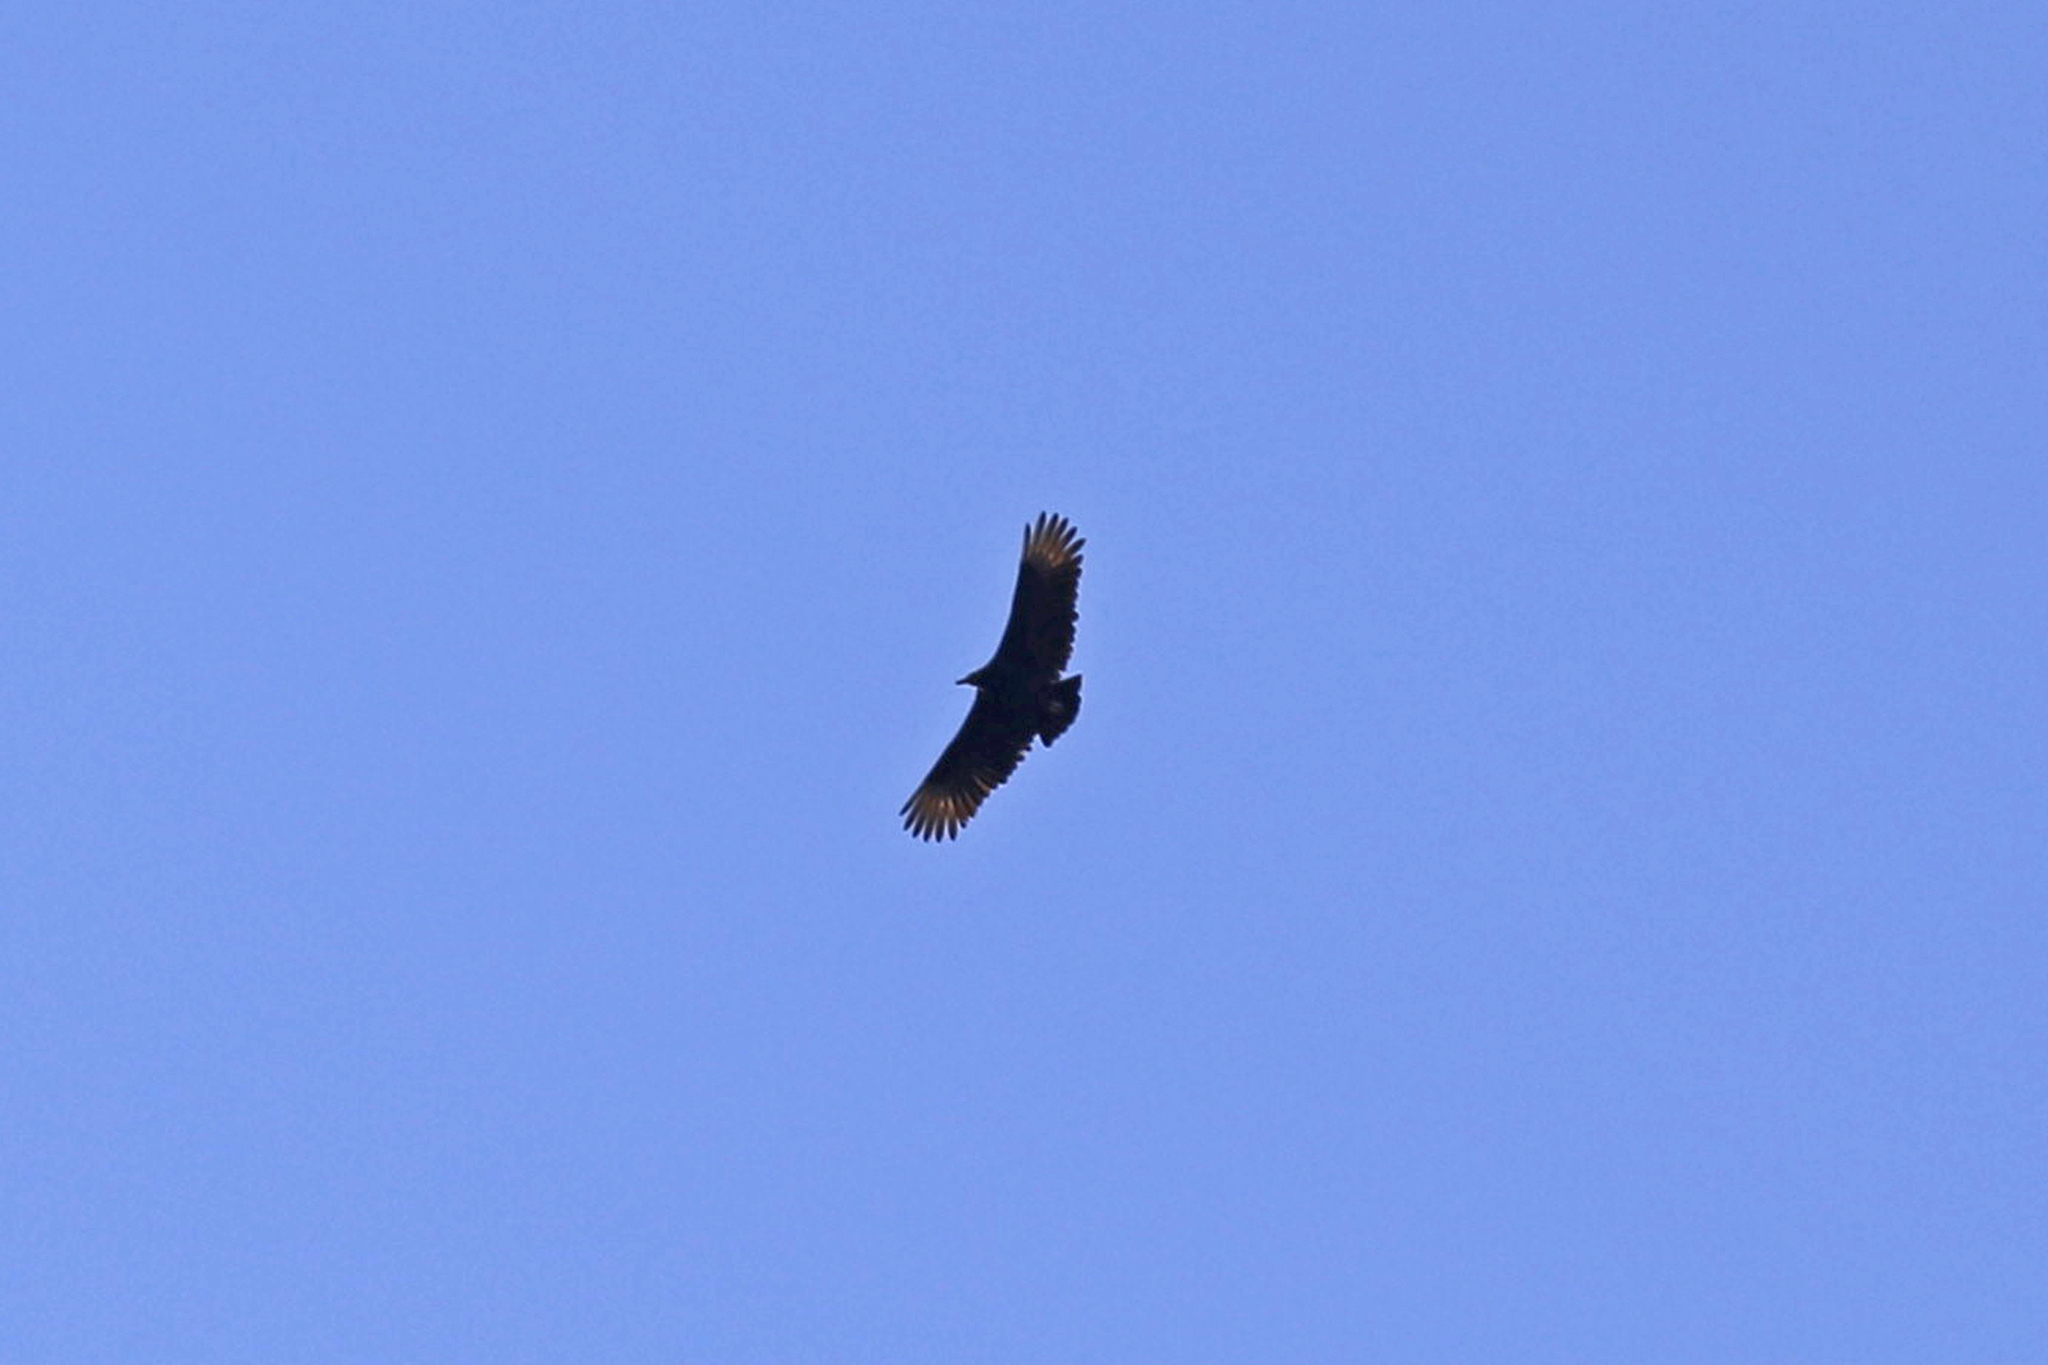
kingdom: Animalia
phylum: Chordata
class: Aves
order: Accipitriformes
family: Cathartidae
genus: Coragyps
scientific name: Coragyps atratus
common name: Black vulture
